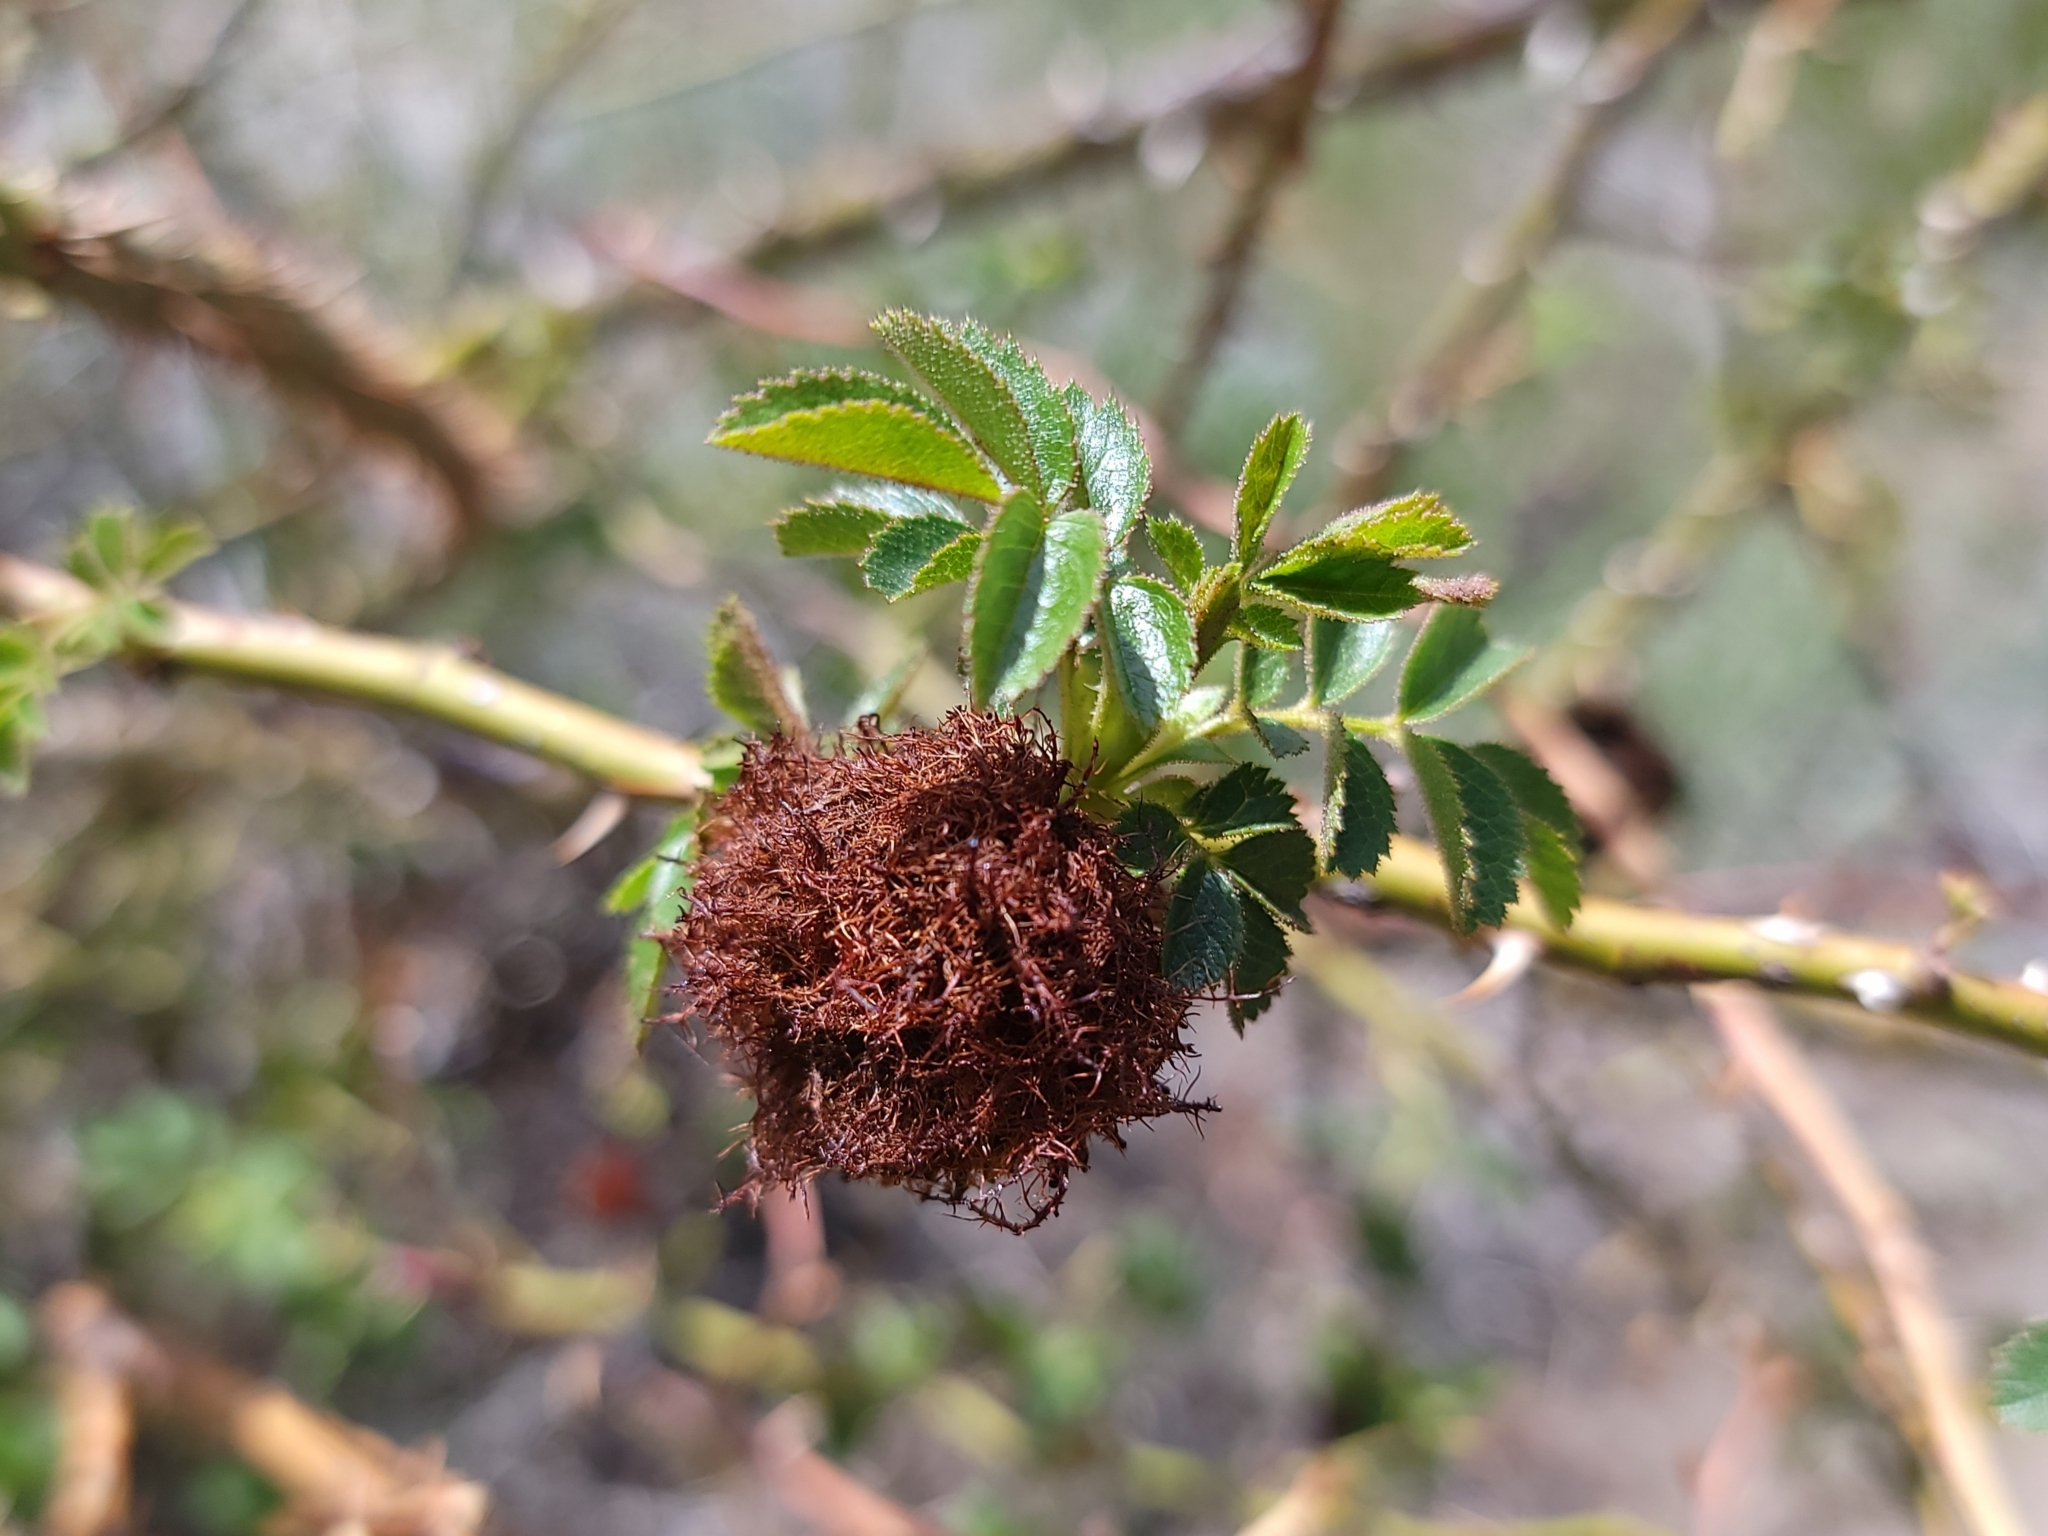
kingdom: Animalia
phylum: Arthropoda
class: Insecta
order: Hymenoptera
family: Cynipidae
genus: Diplolepis
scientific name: Diplolepis rosae
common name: Bedeguar gall
